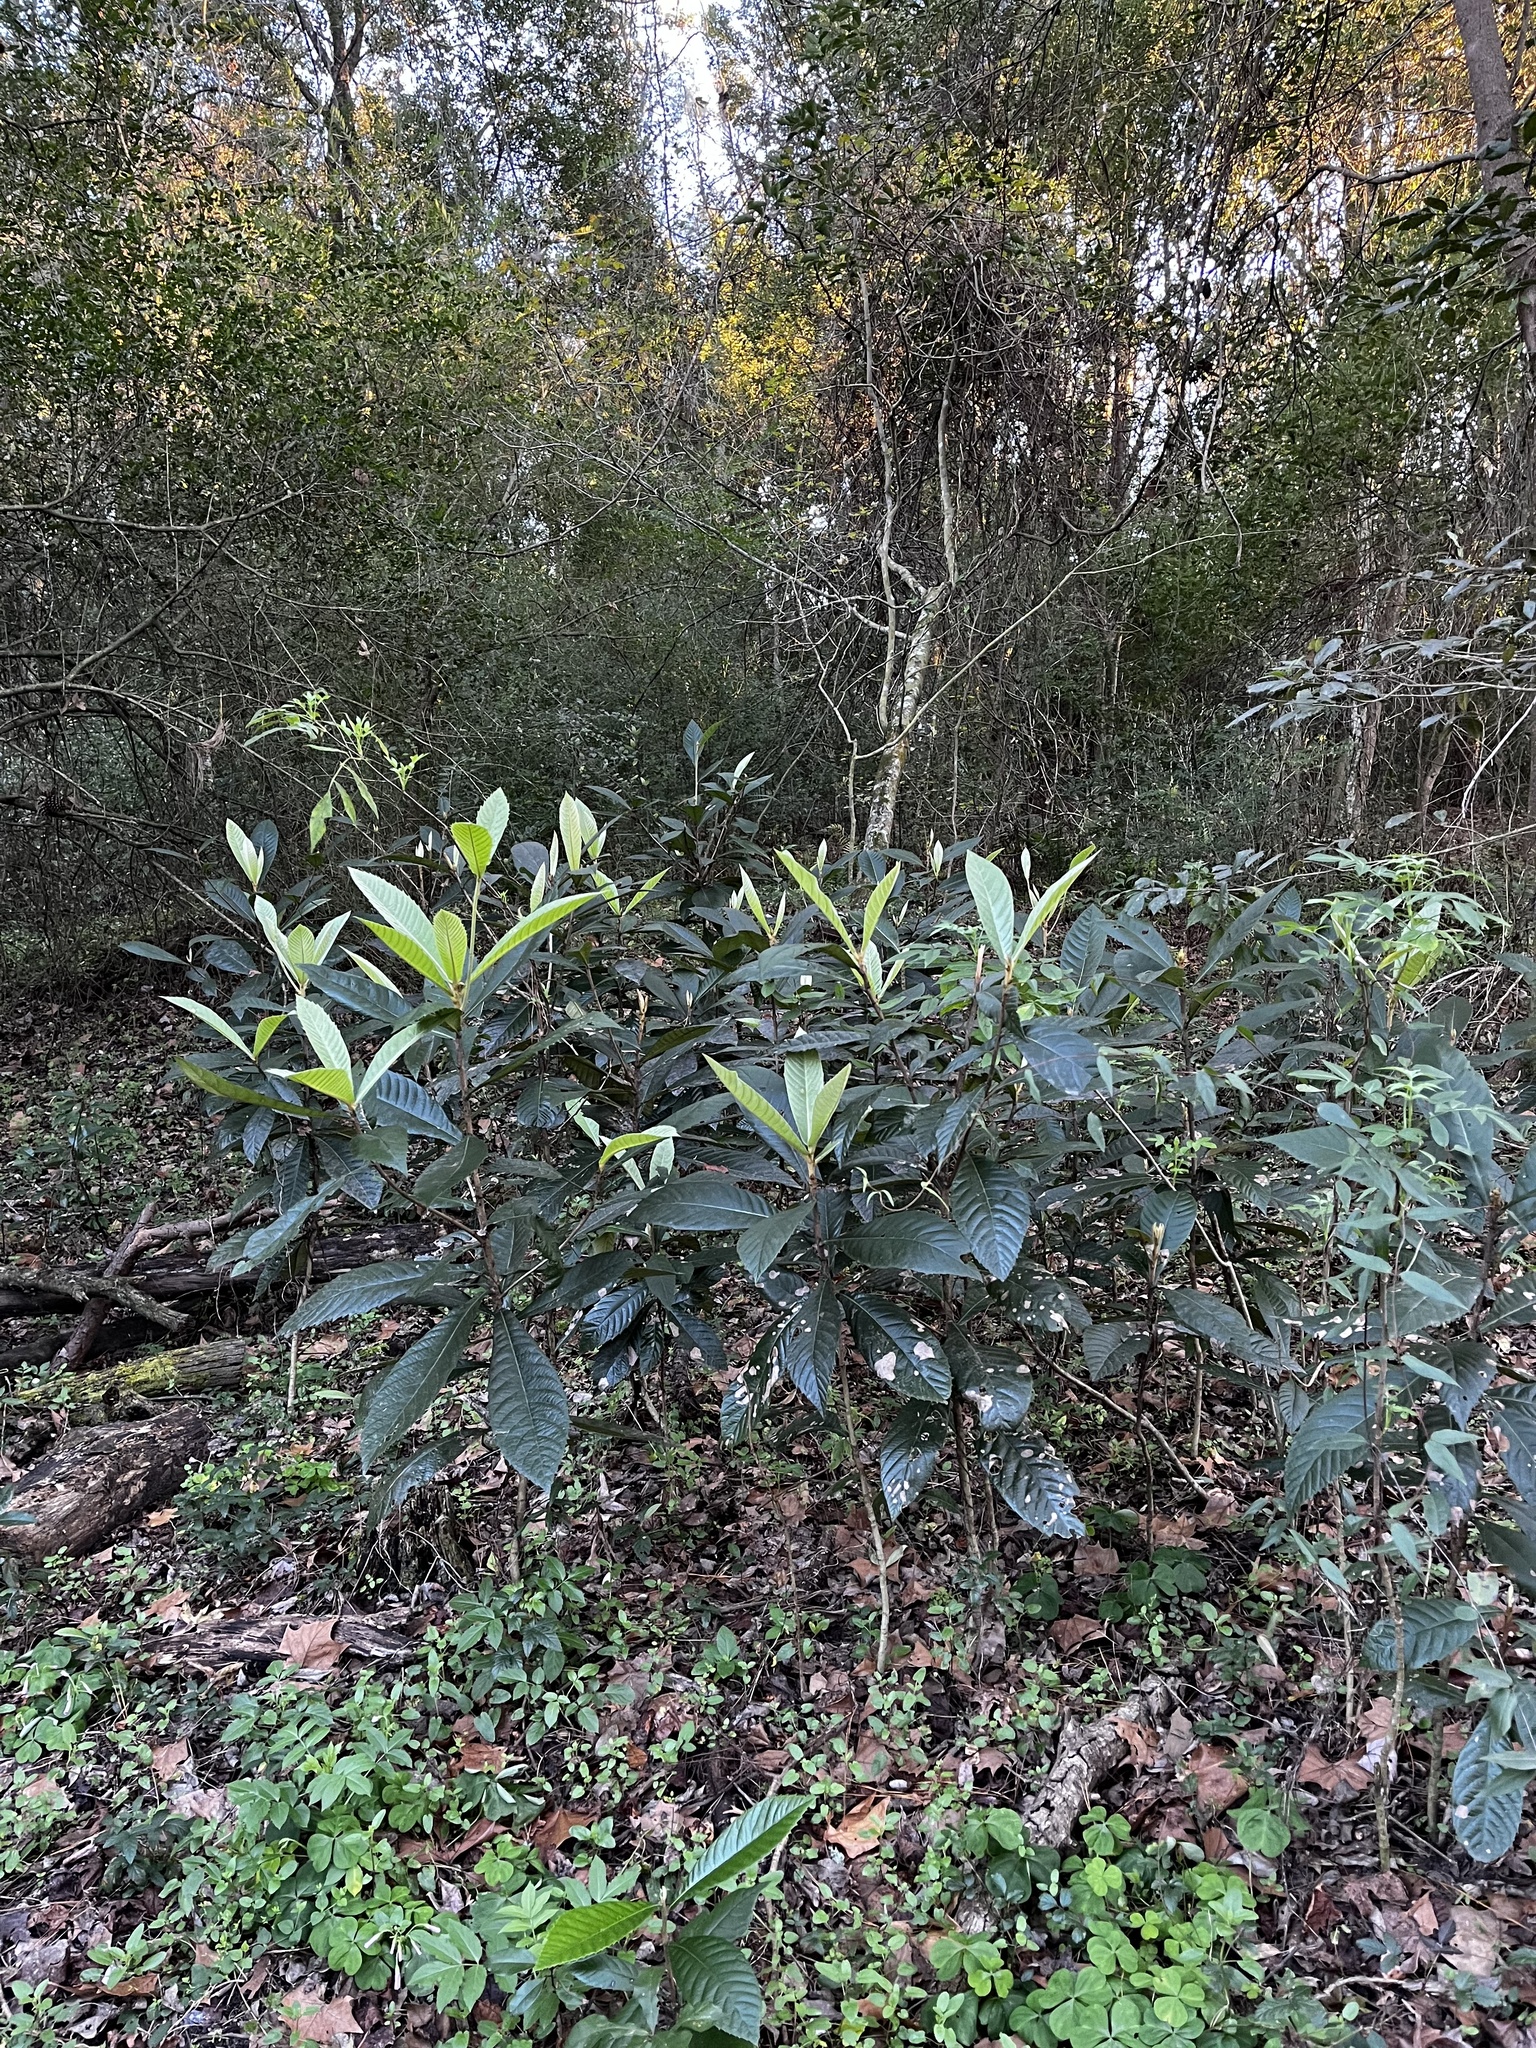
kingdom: Plantae
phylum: Tracheophyta
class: Magnoliopsida
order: Rosales
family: Rosaceae
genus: Rhaphiolepis
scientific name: Rhaphiolepis bibas
